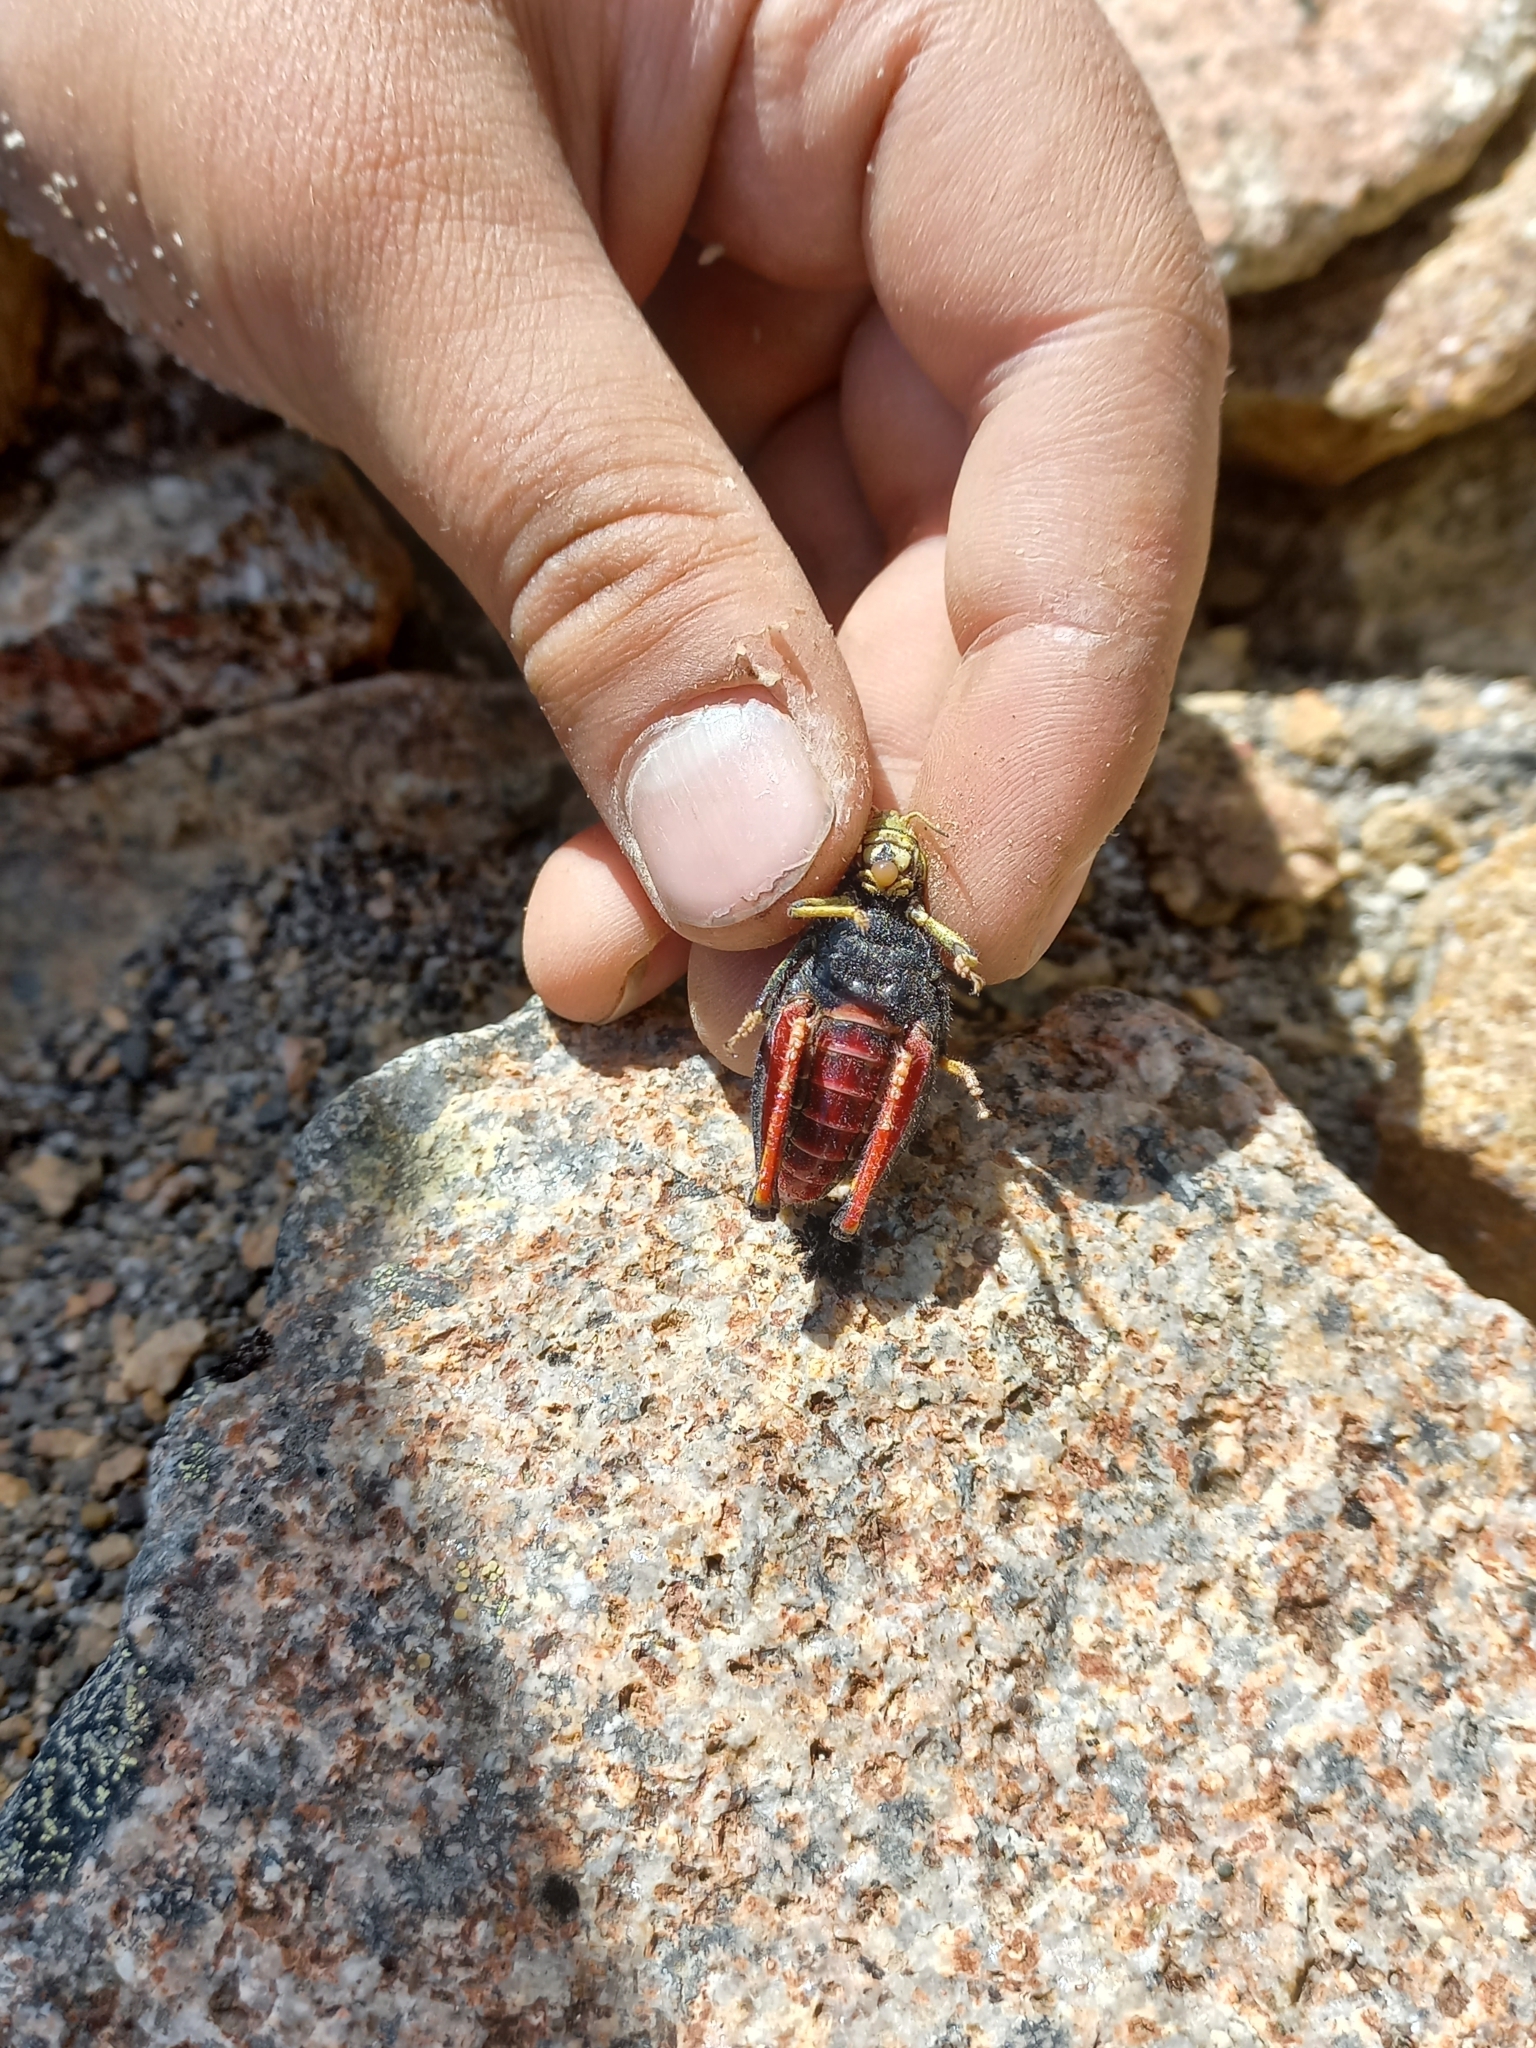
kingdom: Animalia
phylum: Arthropoda
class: Insecta
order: Orthoptera
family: Acrididae
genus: Nahuelia
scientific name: Nahuelia rubriventris
